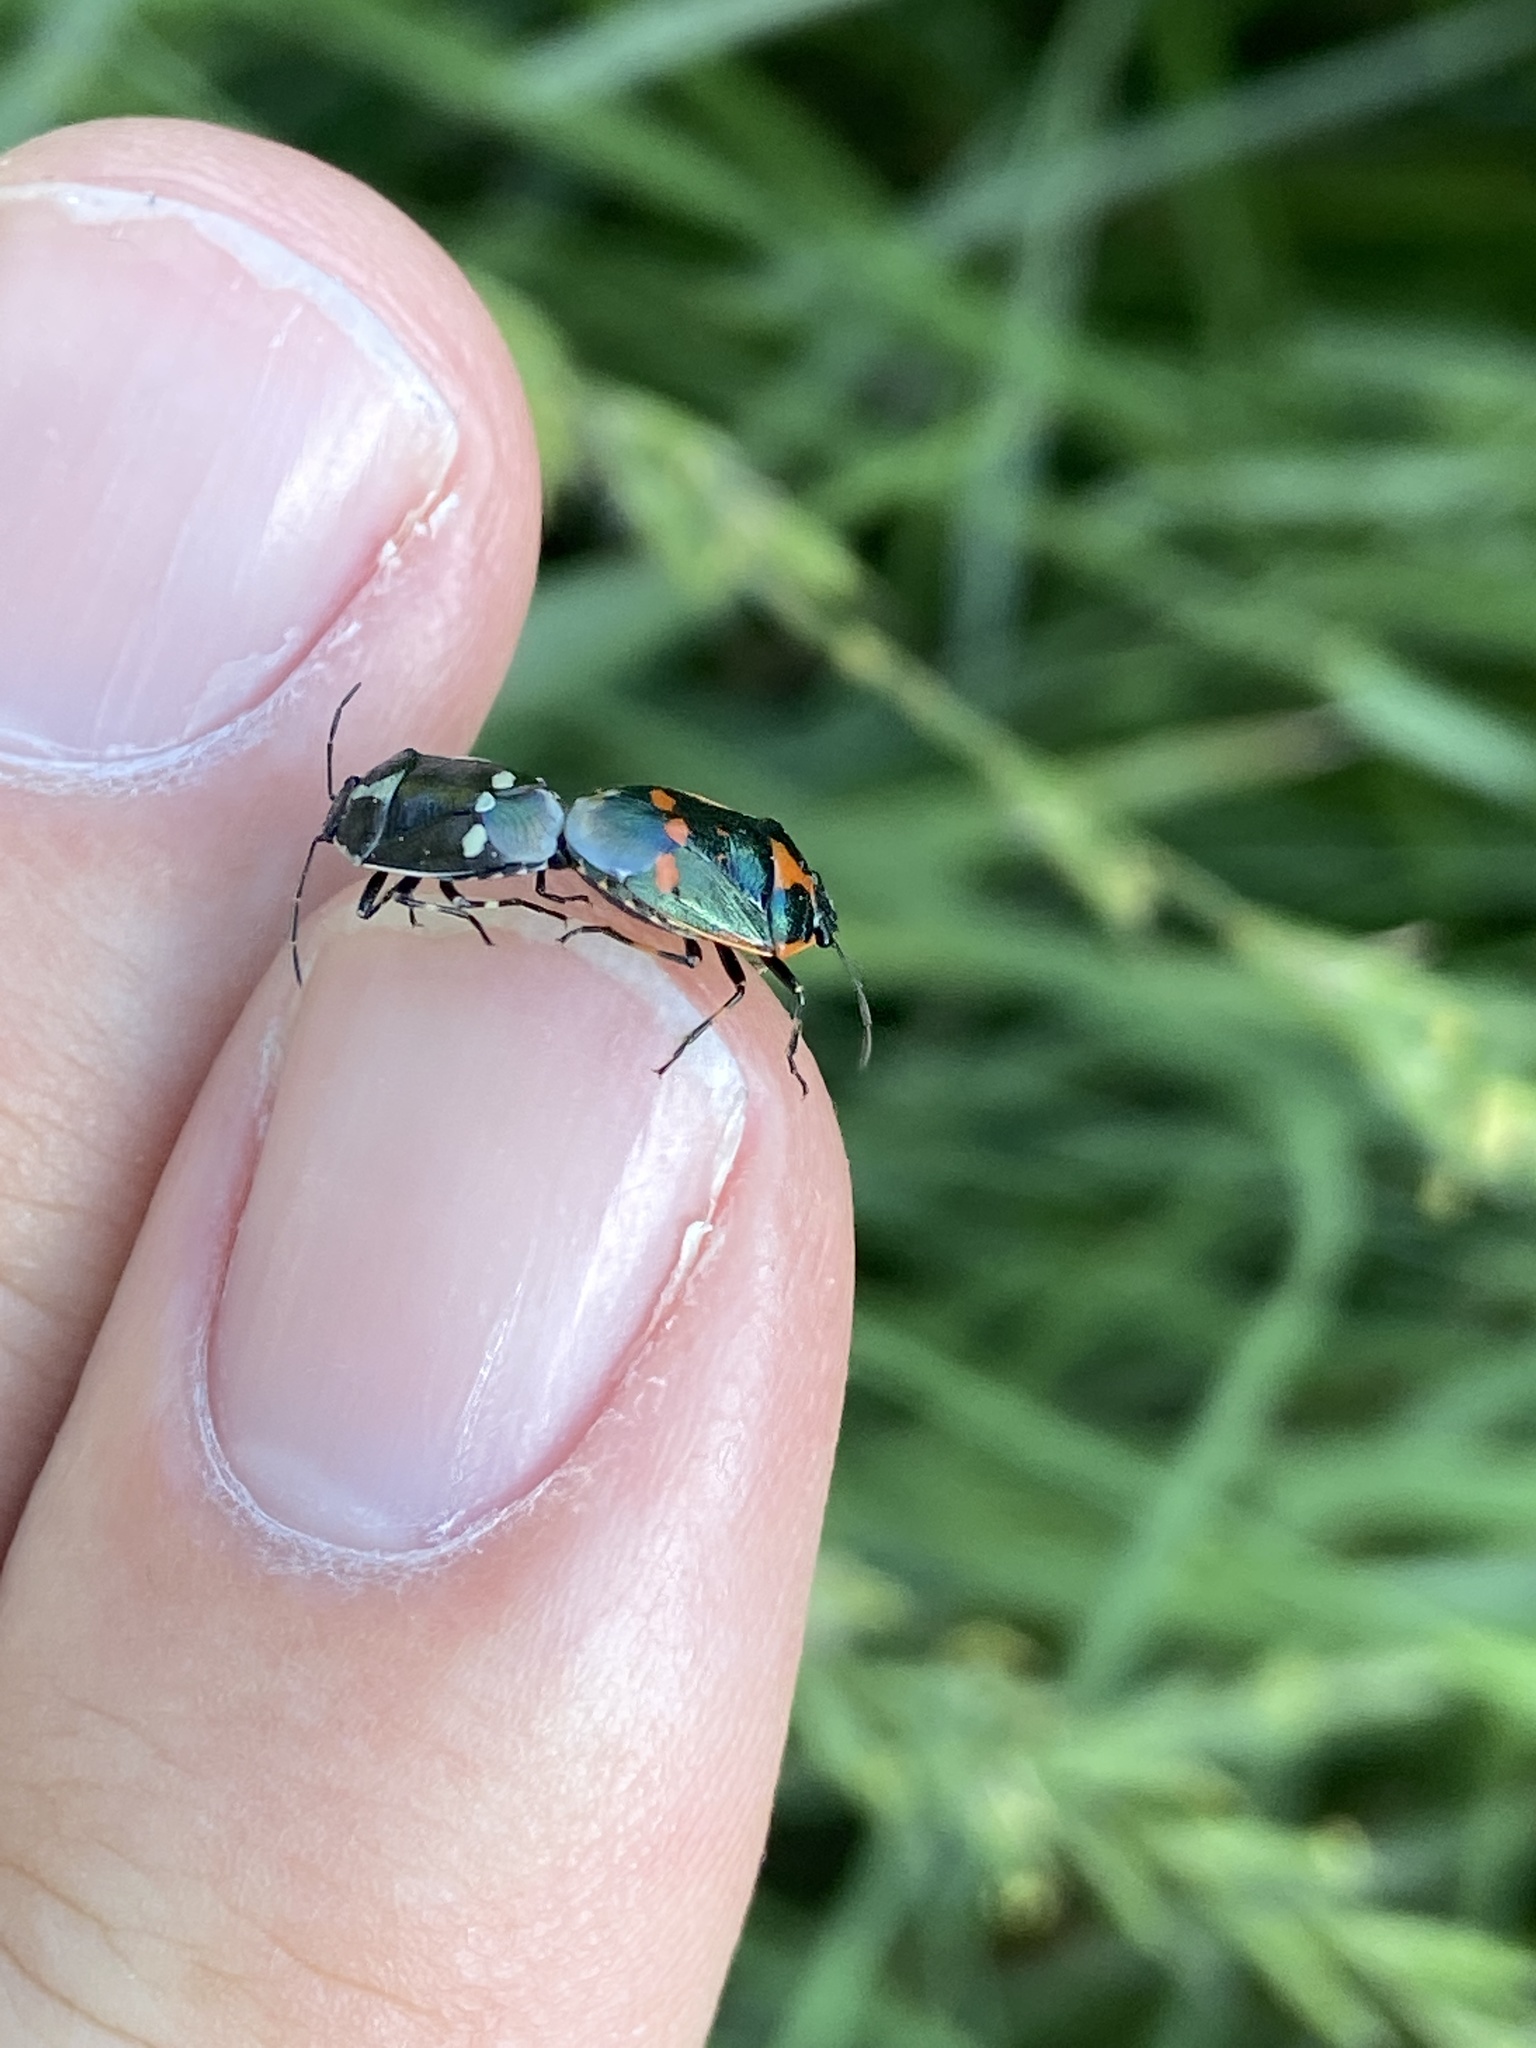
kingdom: Animalia
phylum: Arthropoda
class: Insecta
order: Hemiptera
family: Pentatomidae
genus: Eurydema
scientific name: Eurydema oleracea
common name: Cabbage bug
